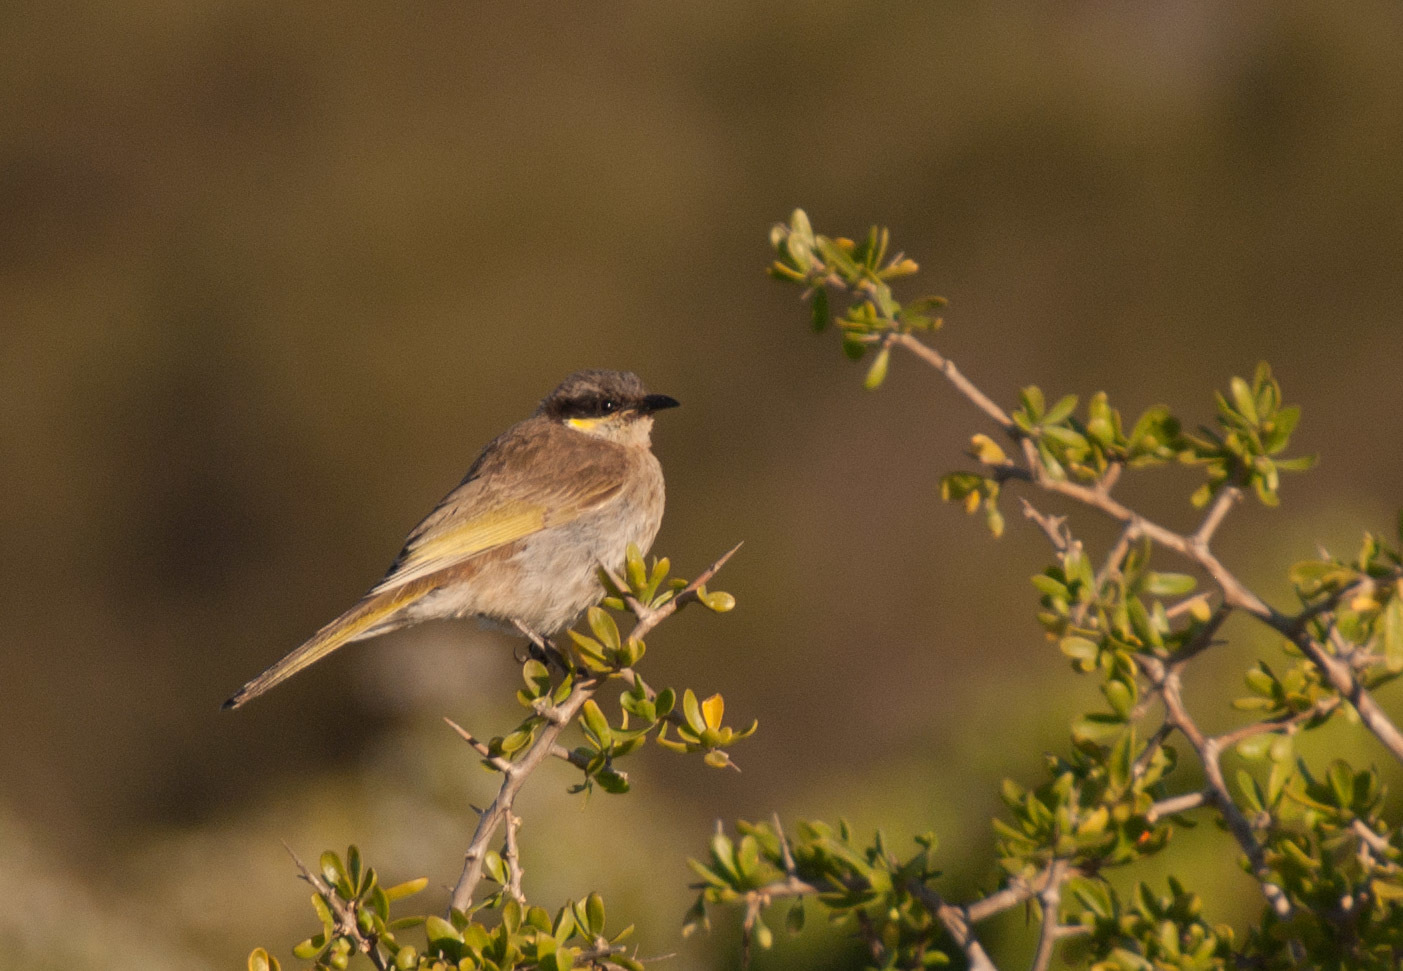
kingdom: Animalia
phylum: Chordata
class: Aves
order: Passeriformes
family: Meliphagidae
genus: Gavicalis
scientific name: Gavicalis virescens
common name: Singing honeyeater
